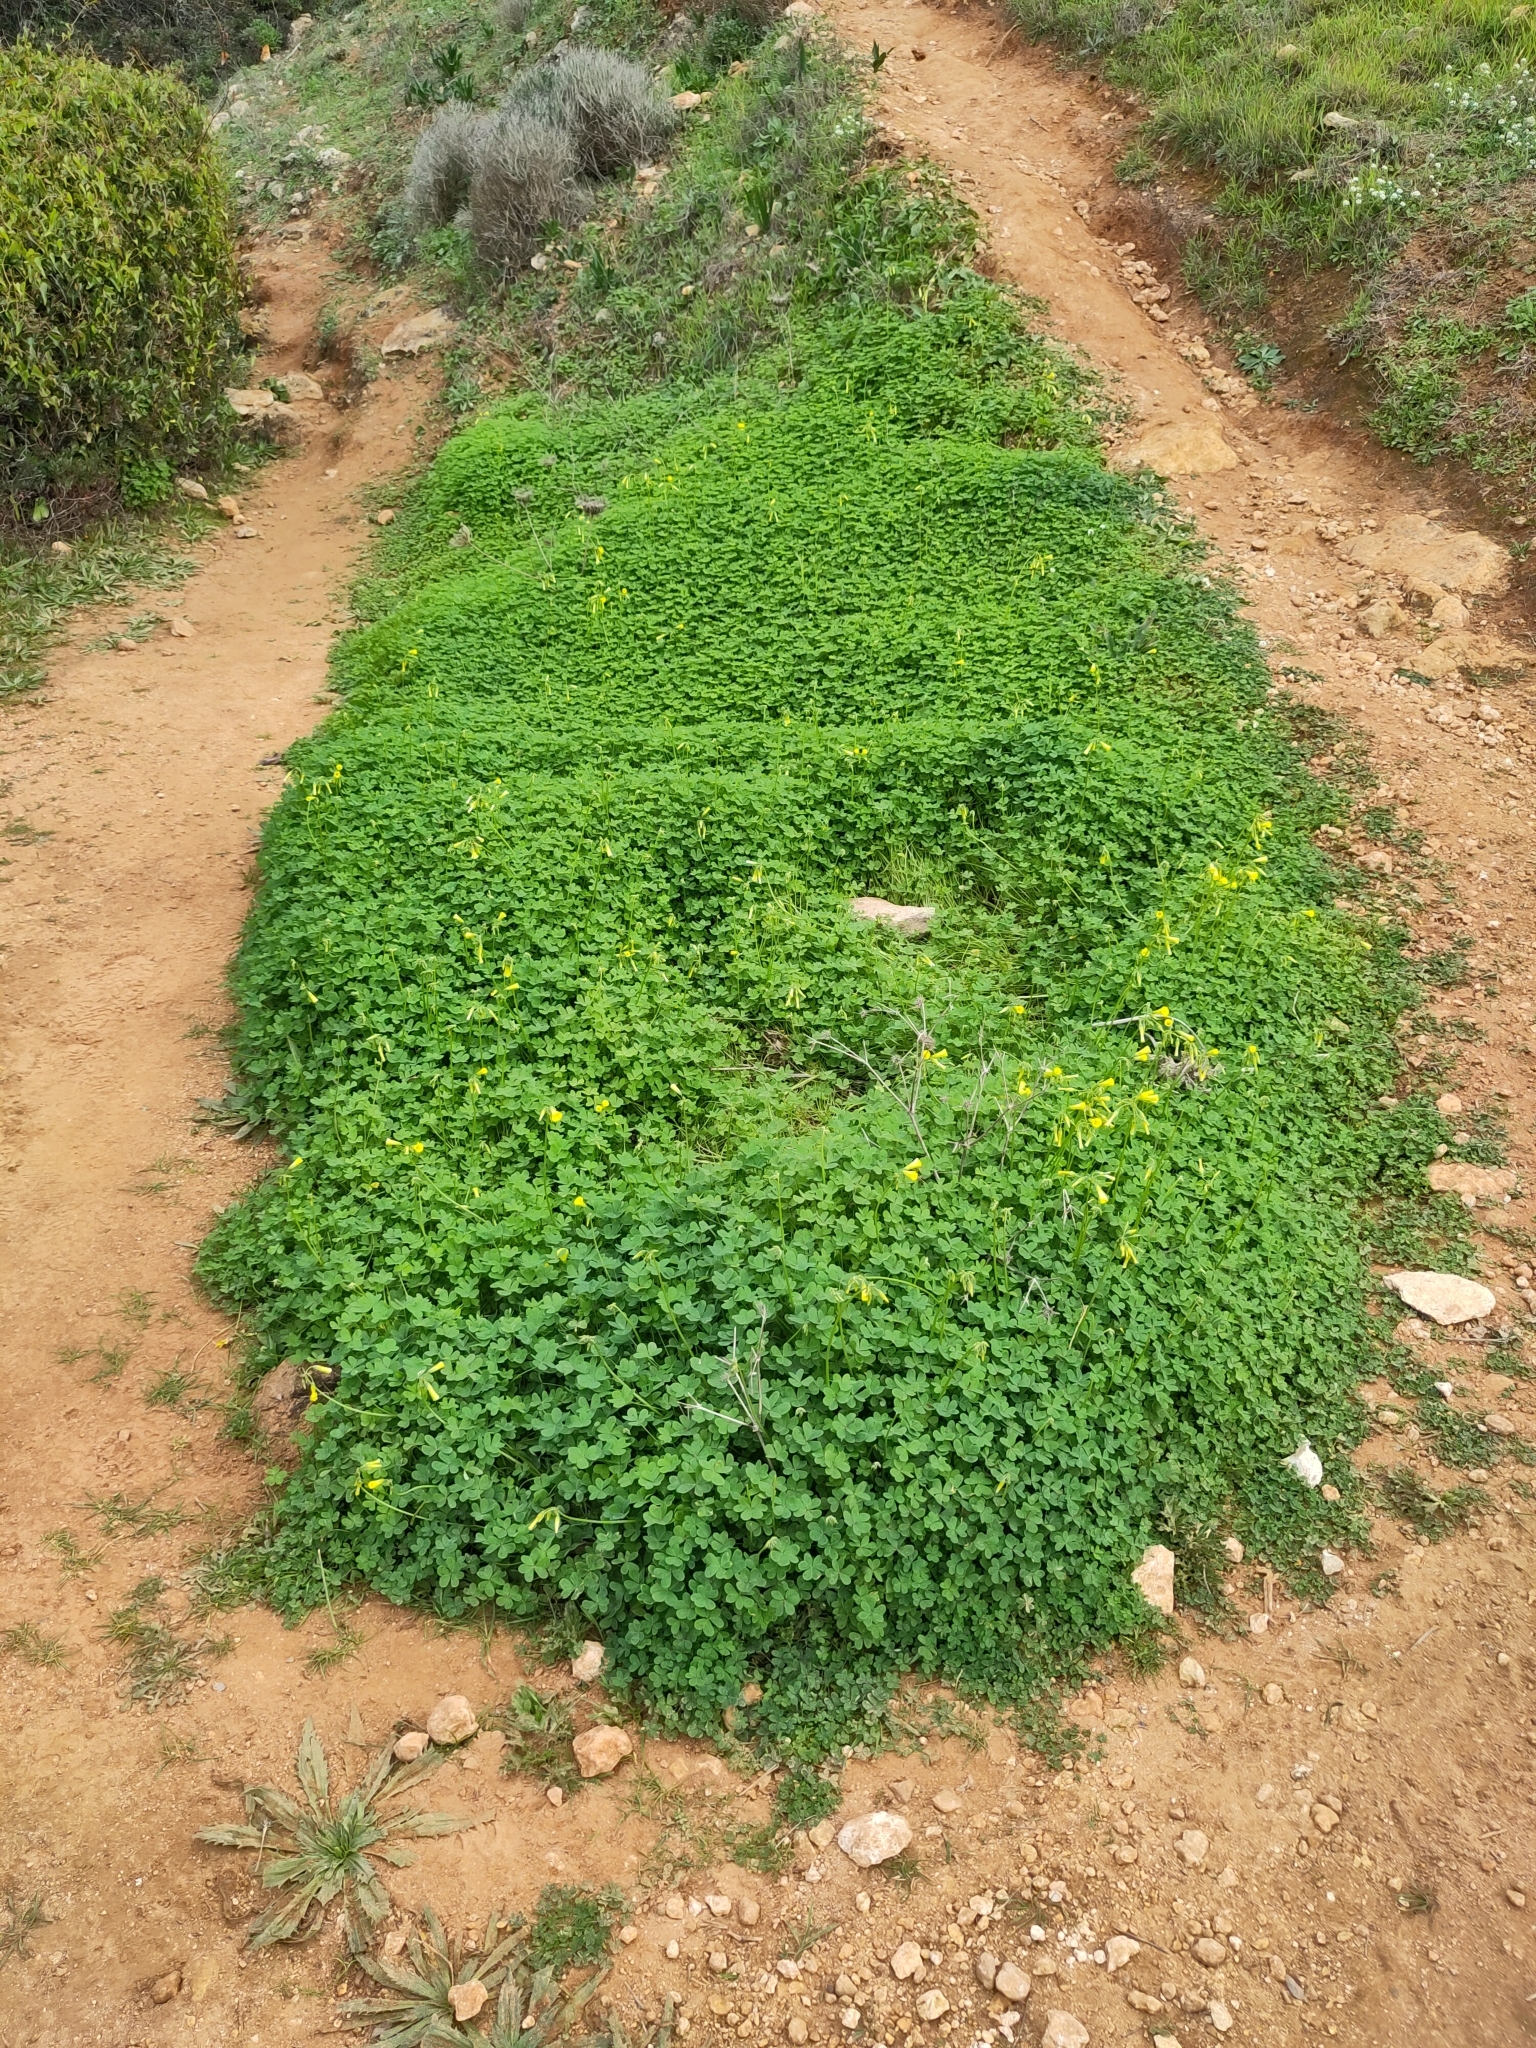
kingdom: Plantae
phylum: Tracheophyta
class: Magnoliopsida
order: Oxalidales
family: Oxalidaceae
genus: Oxalis
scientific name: Oxalis pes-caprae
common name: Bermuda-buttercup
